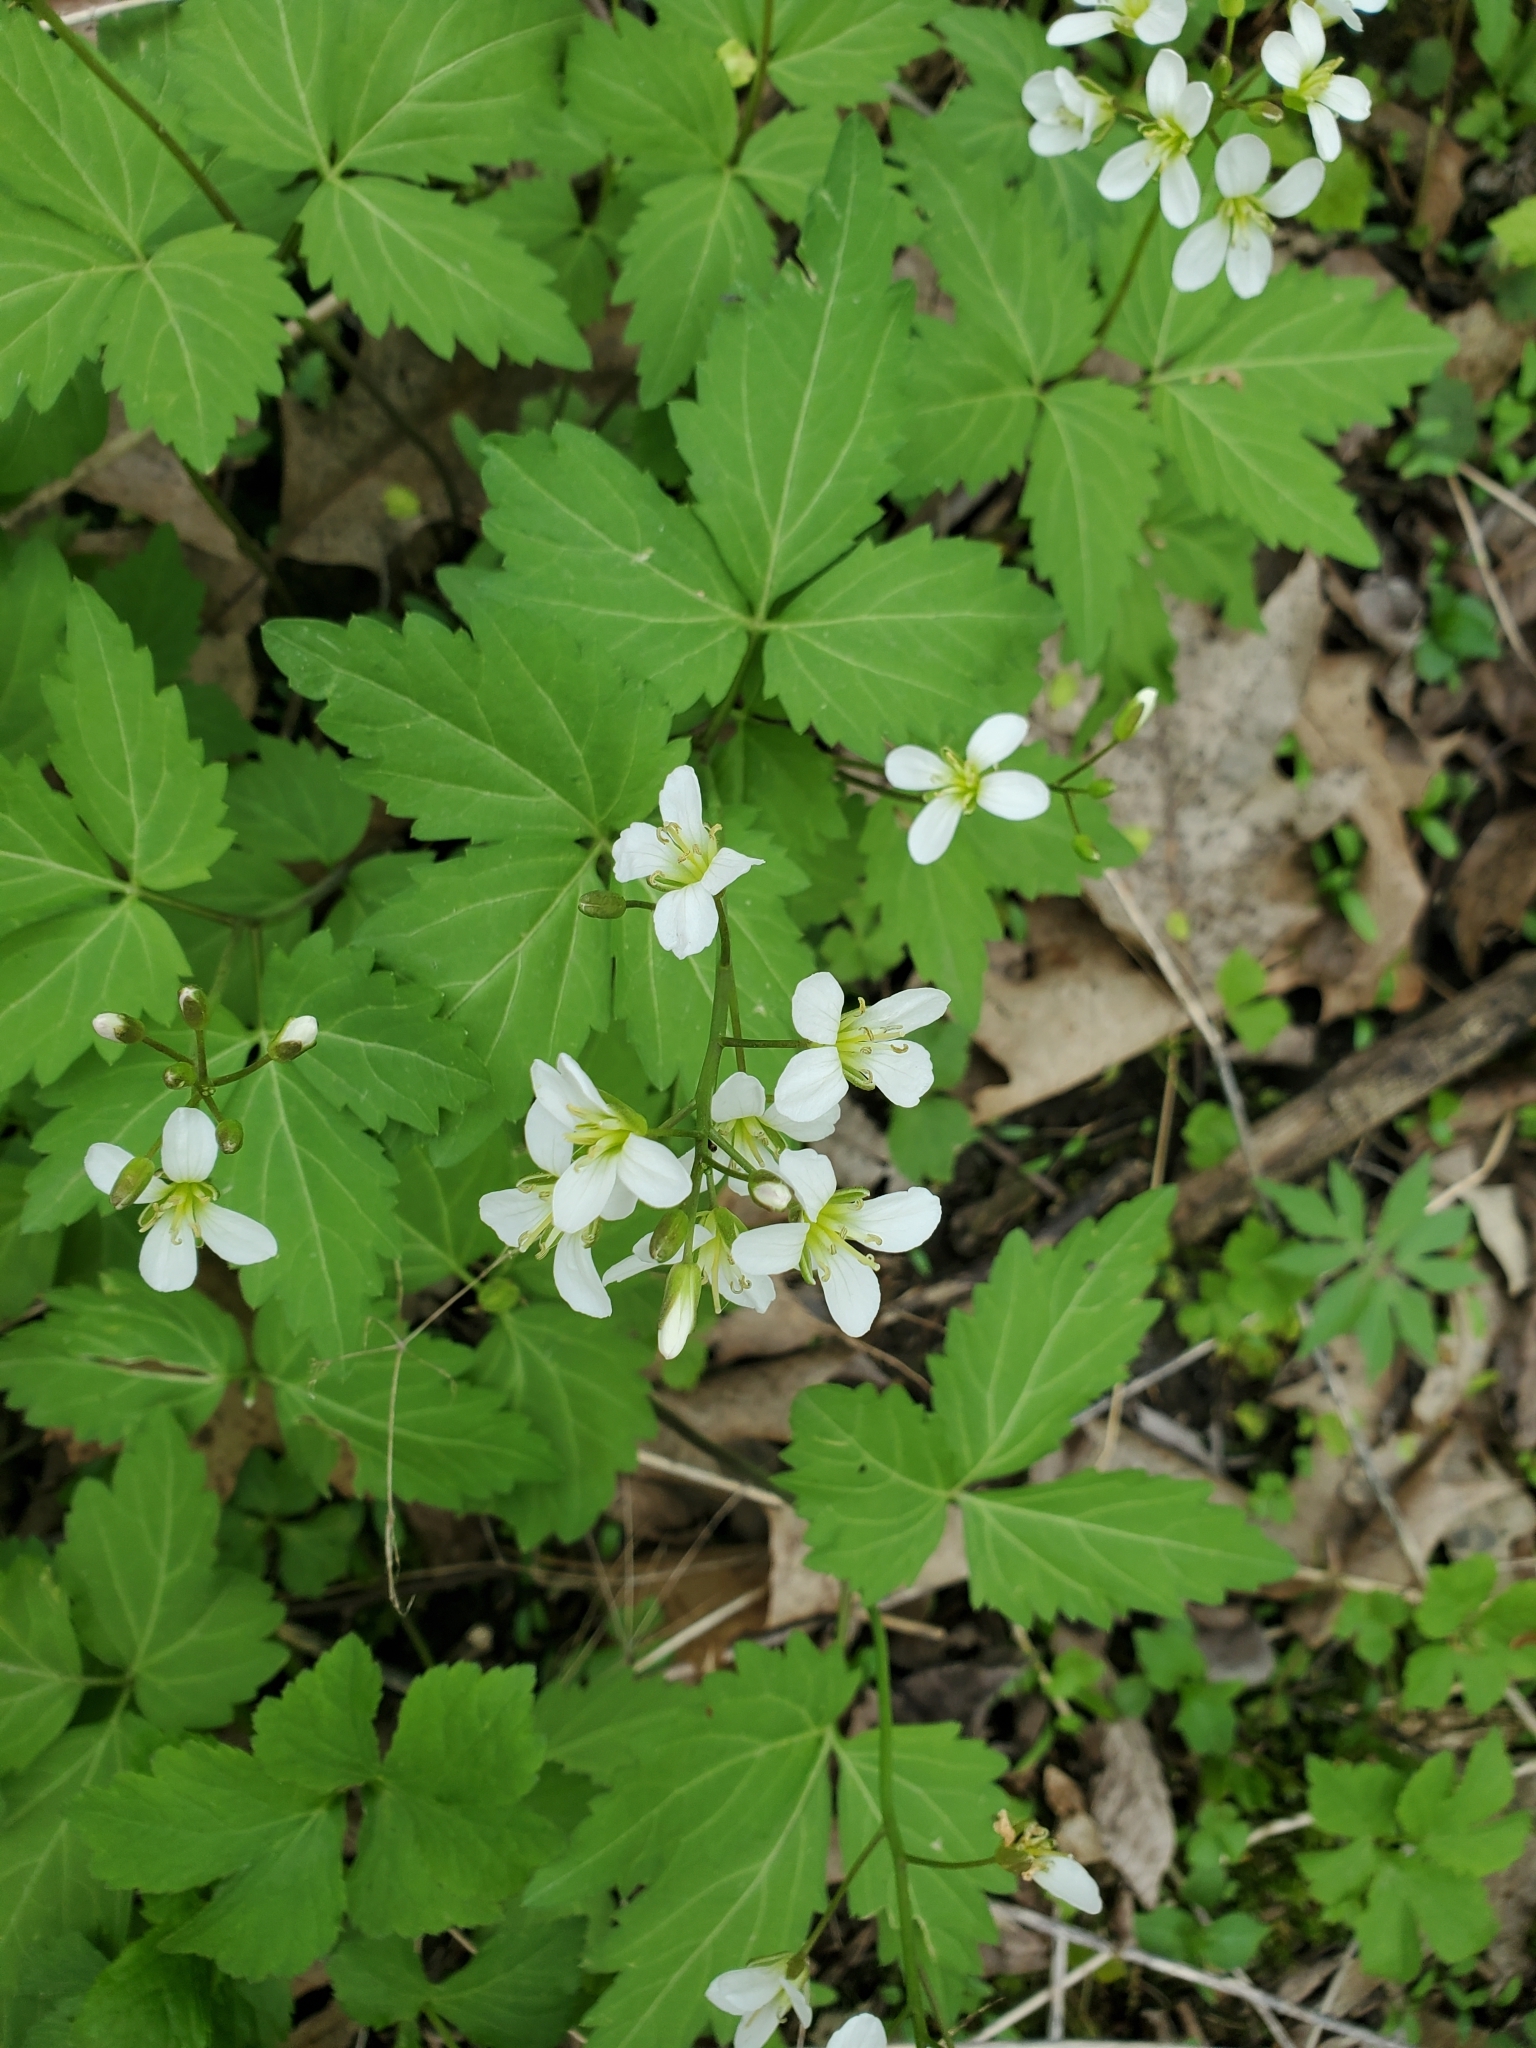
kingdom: Plantae
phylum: Tracheophyta
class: Magnoliopsida
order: Brassicales
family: Brassicaceae
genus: Cardamine
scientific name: Cardamine diphylla
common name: Broad-leaved toothwort
